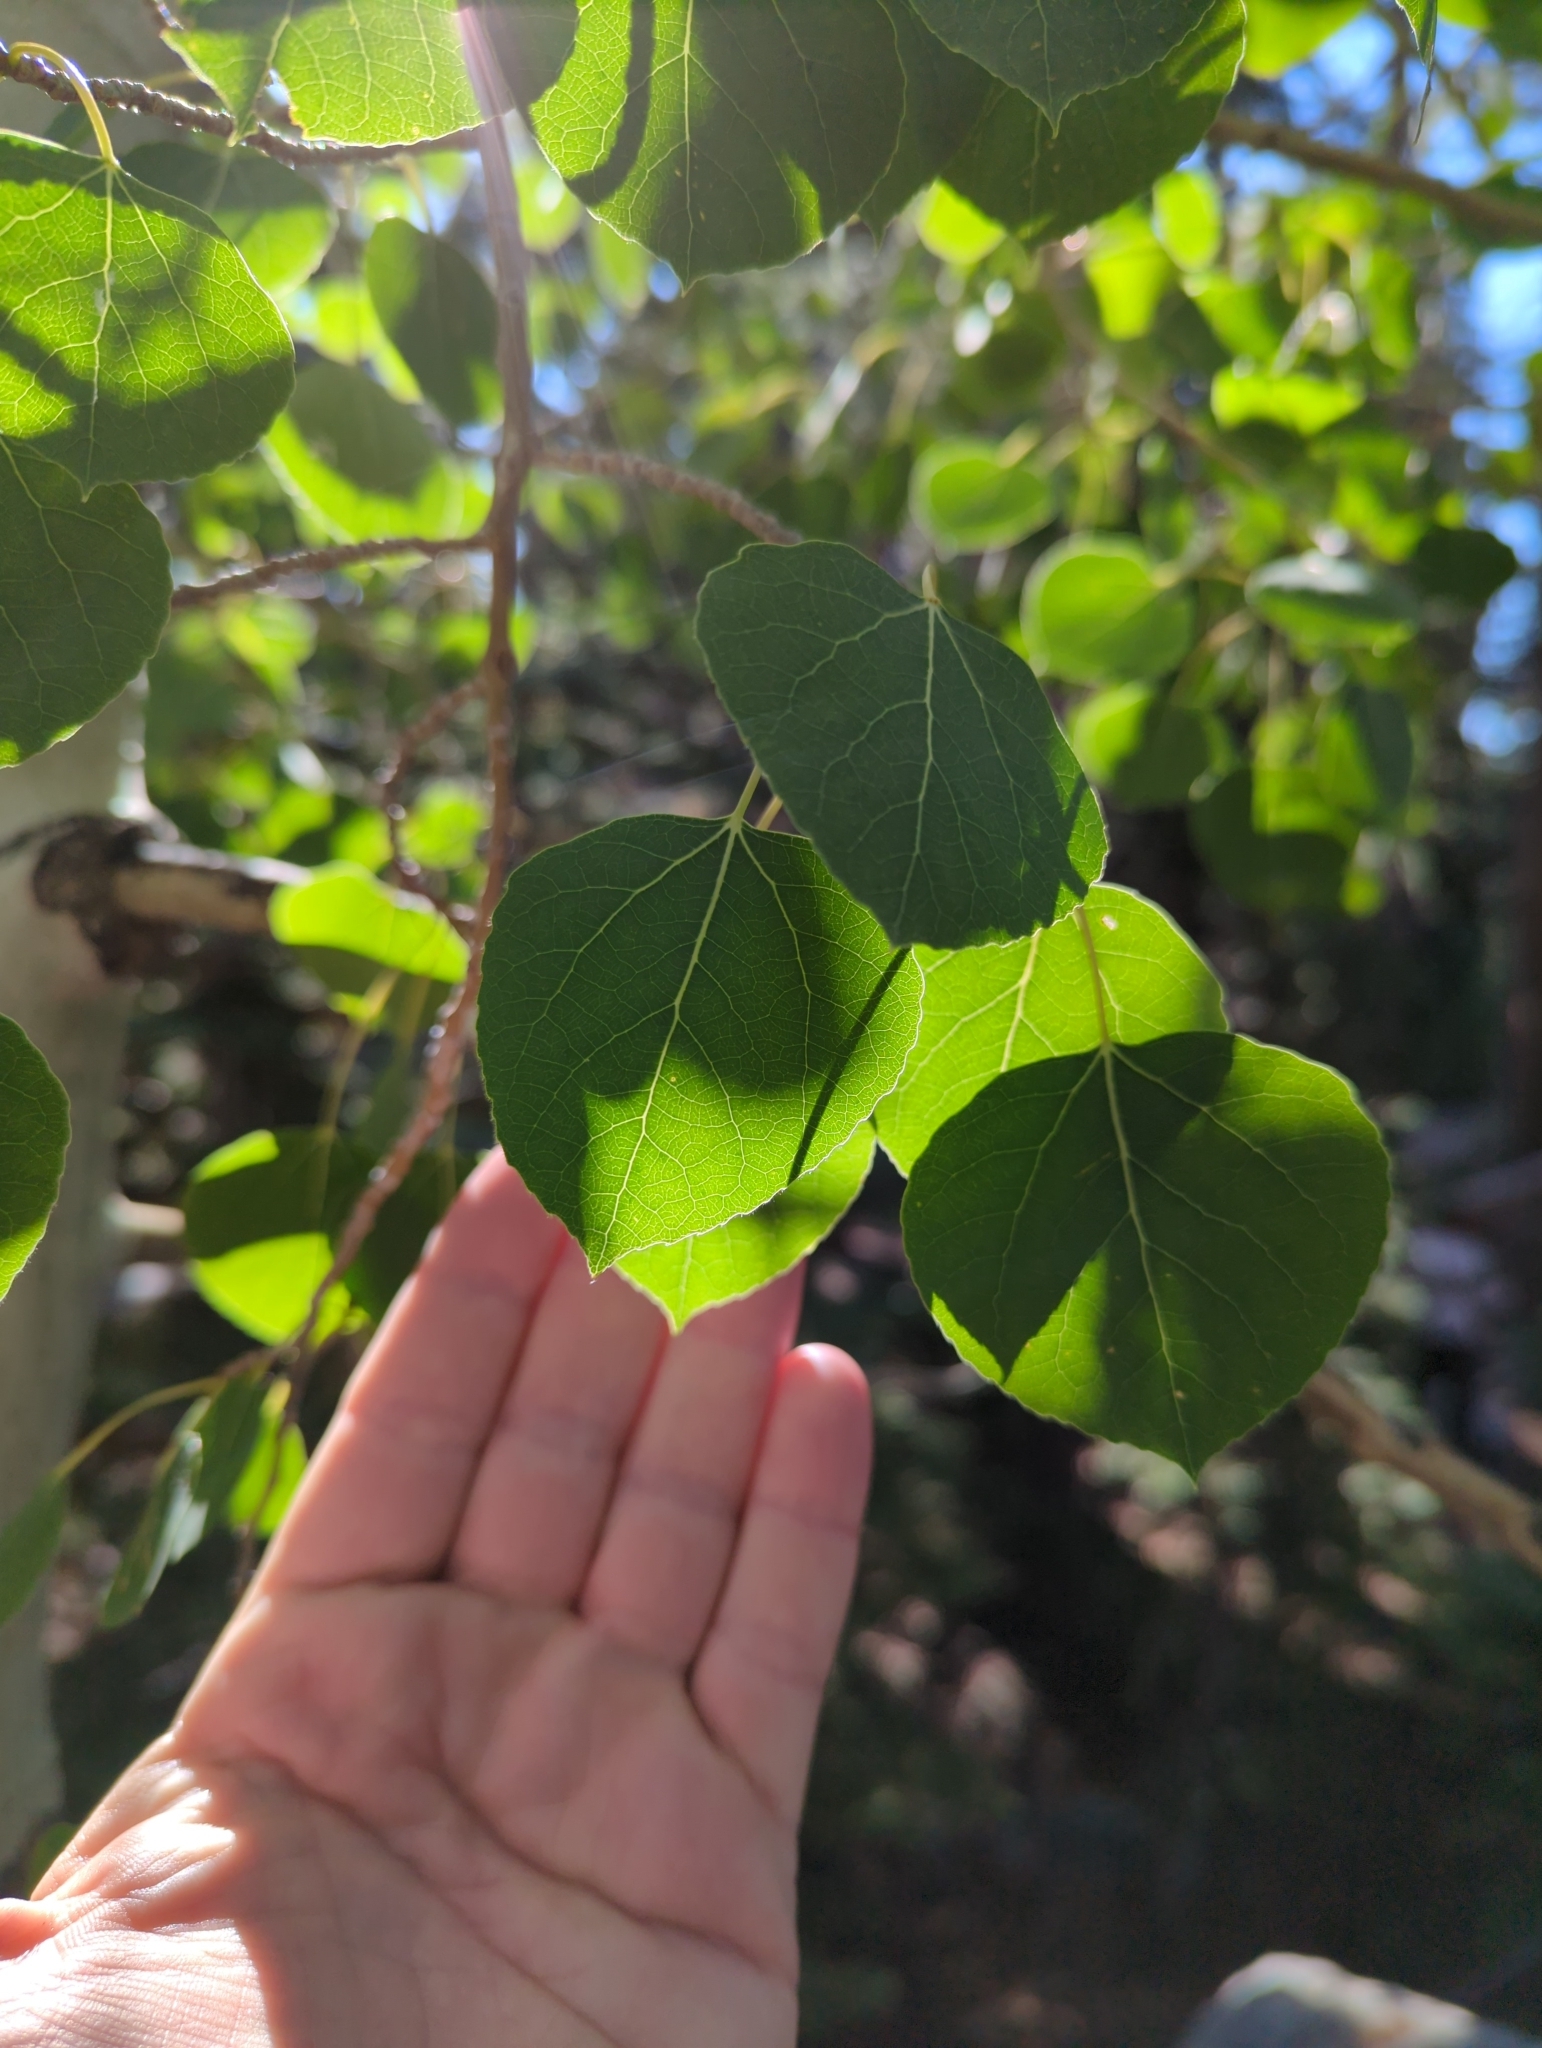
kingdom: Plantae
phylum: Tracheophyta
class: Magnoliopsida
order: Malpighiales
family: Salicaceae
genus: Populus
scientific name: Populus tremuloides
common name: Quaking aspen
